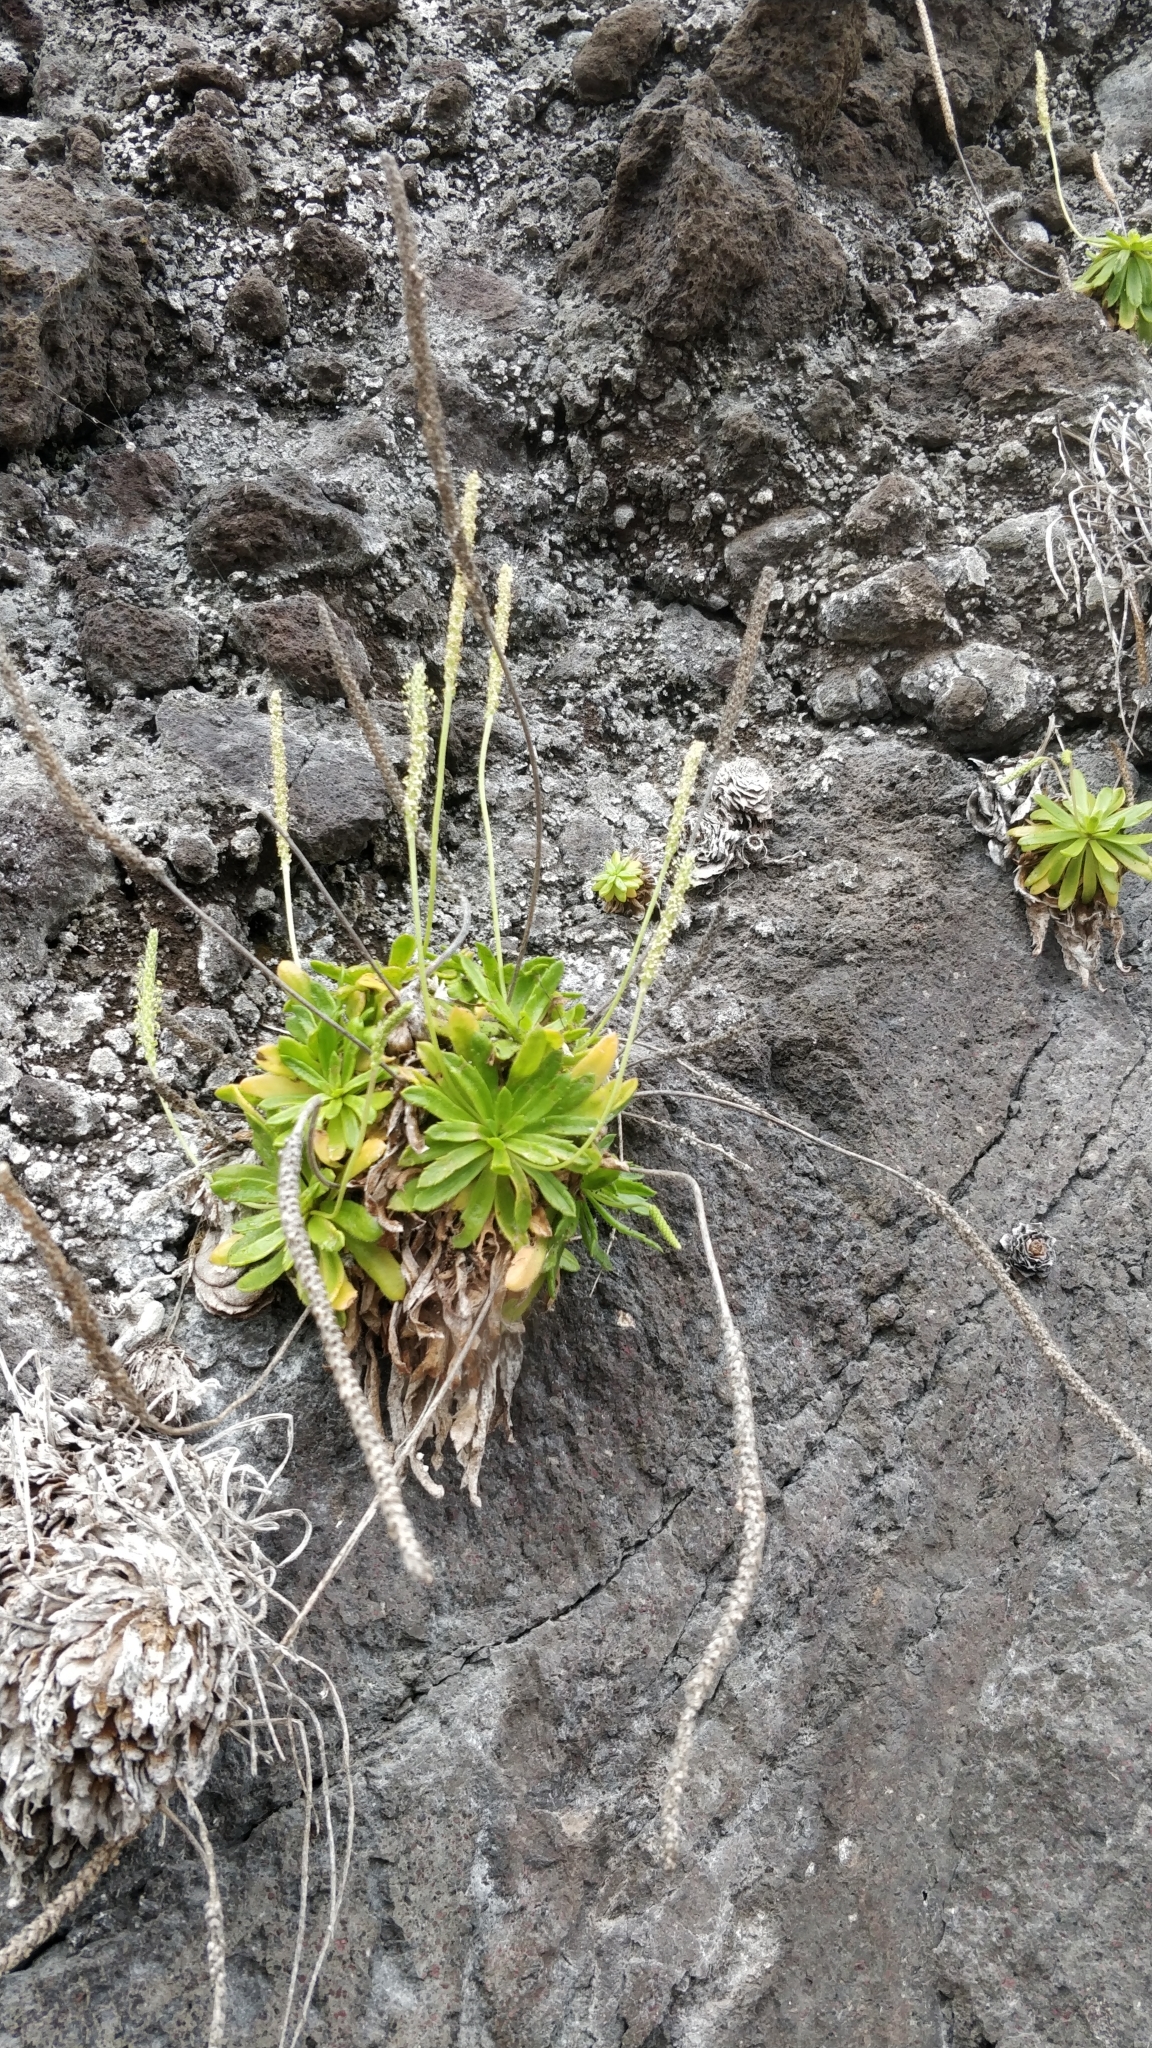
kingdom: Plantae
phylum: Tracheophyta
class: Magnoliopsida
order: Lamiales
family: Plantaginaceae
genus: Plantago
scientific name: Plantago coronopus
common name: Buck's-horn plantain
